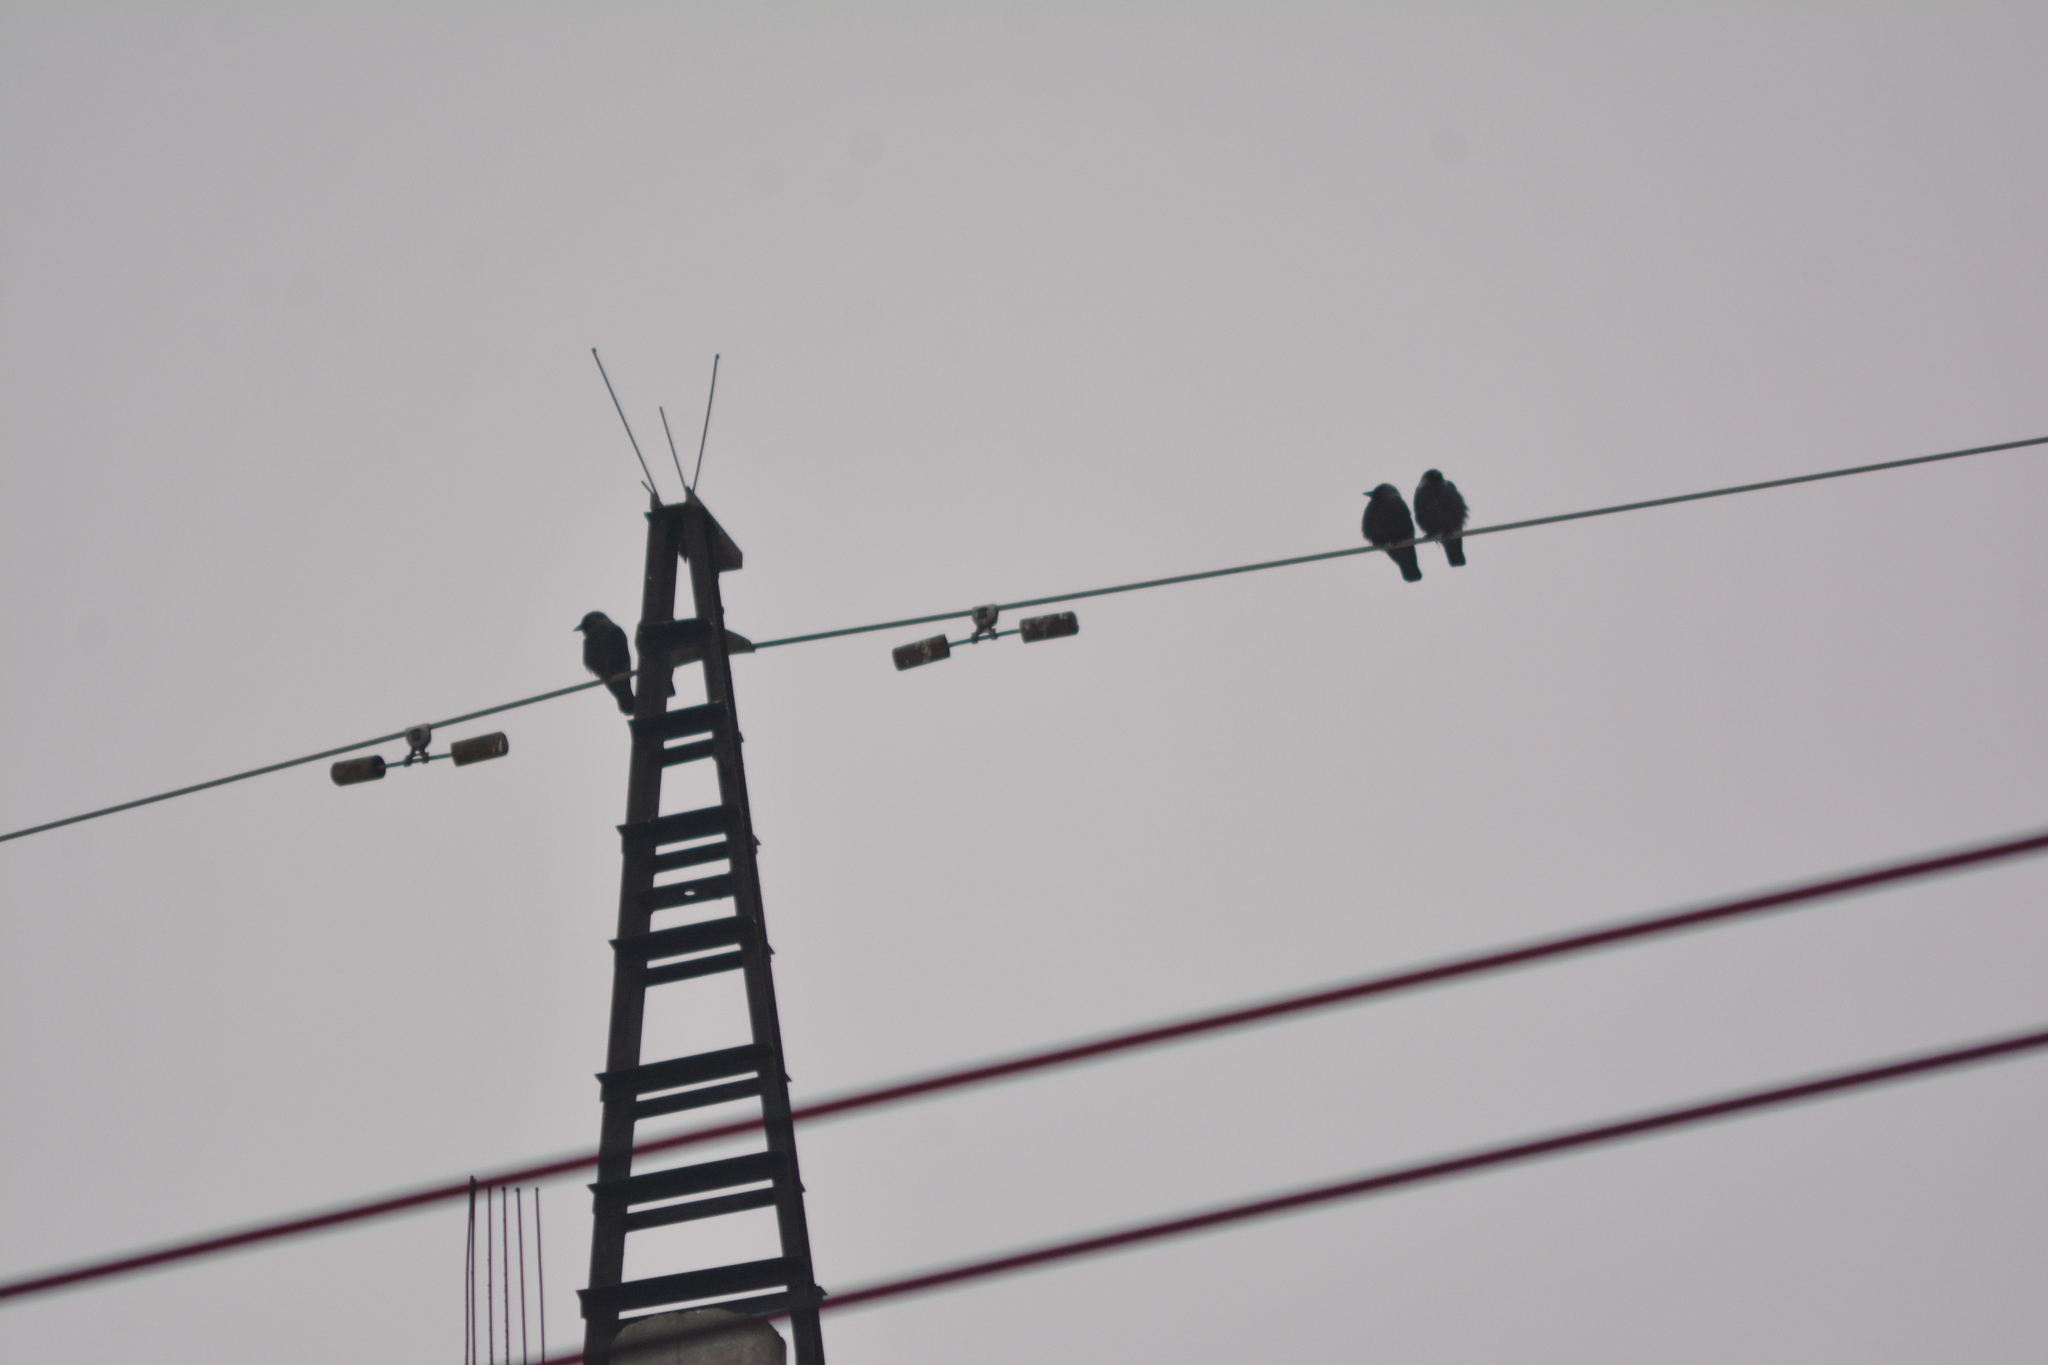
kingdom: Animalia
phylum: Chordata
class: Aves
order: Passeriformes
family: Corvidae
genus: Coloeus
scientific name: Coloeus monedula
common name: Western jackdaw
